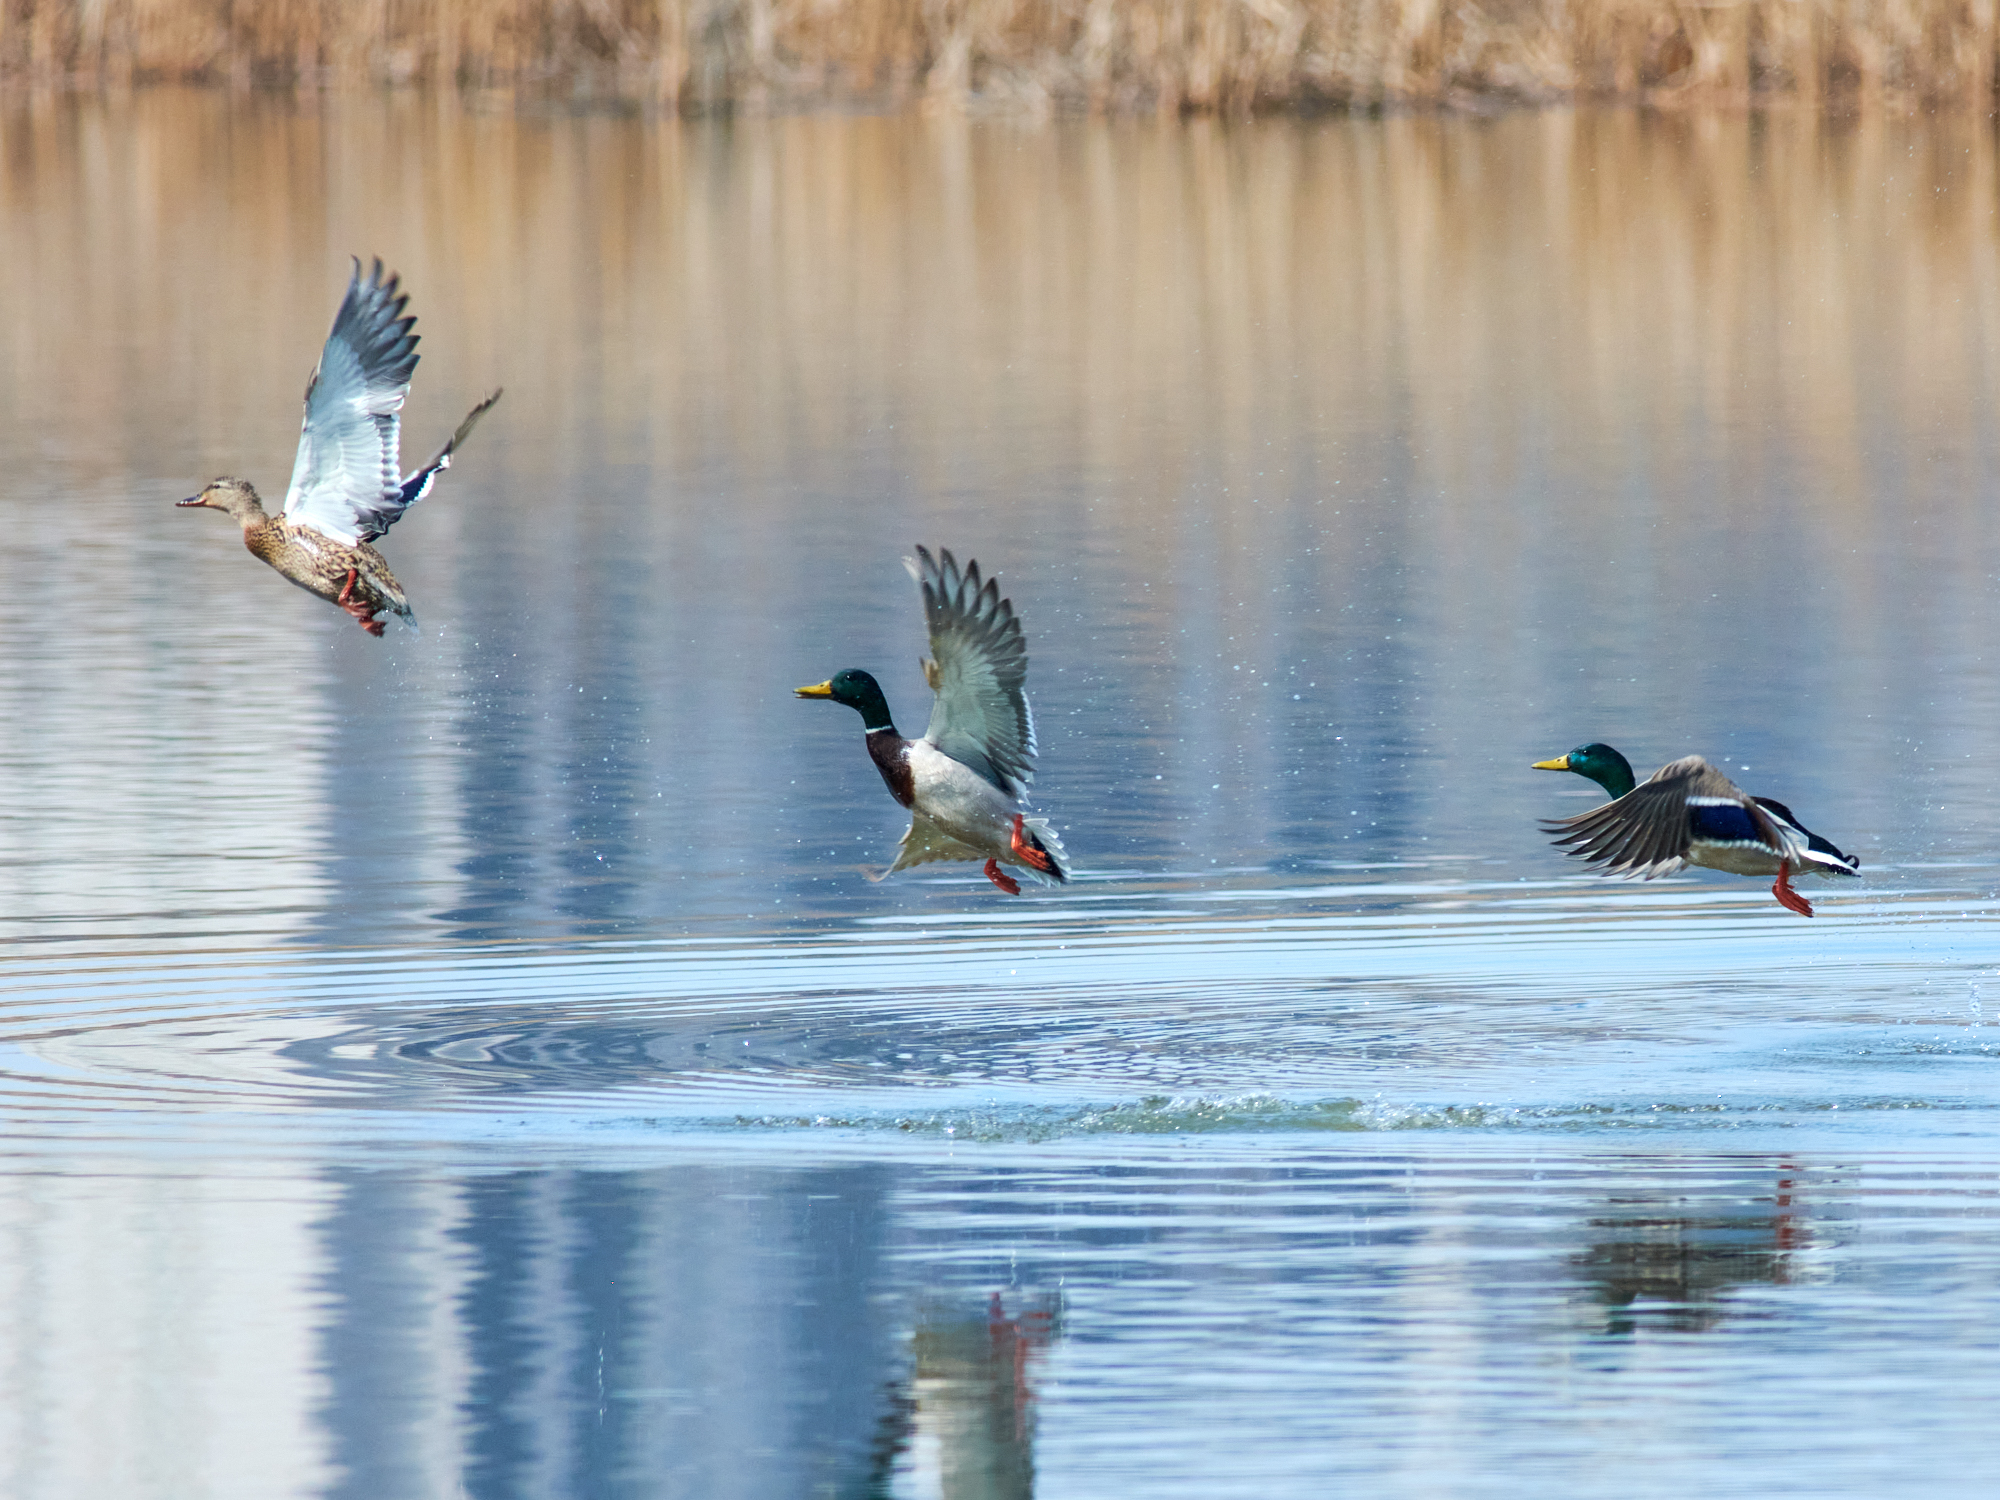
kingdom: Animalia
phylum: Chordata
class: Aves
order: Anseriformes
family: Anatidae
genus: Anas
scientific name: Anas platyrhynchos
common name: Mallard
